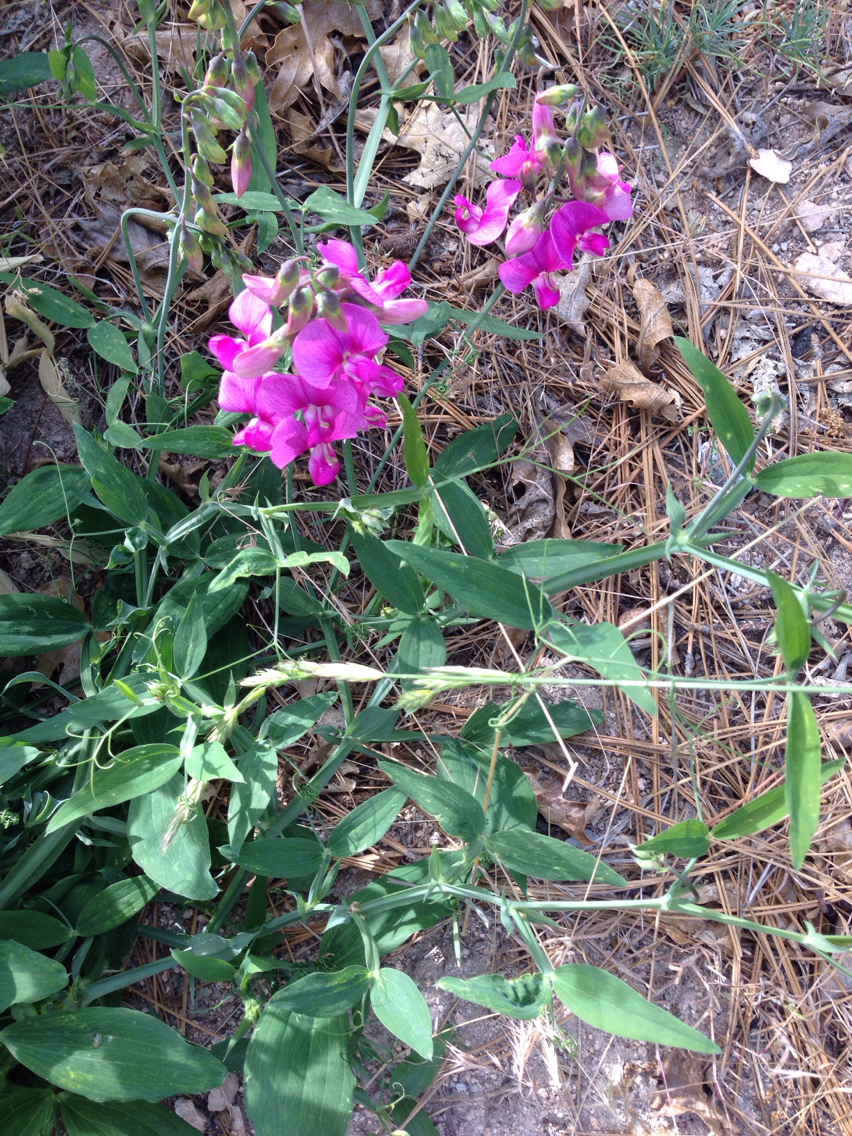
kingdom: Plantae
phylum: Tracheophyta
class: Magnoliopsida
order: Fabales
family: Fabaceae
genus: Lathyrus
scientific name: Lathyrus latifolius
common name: Perennial pea
